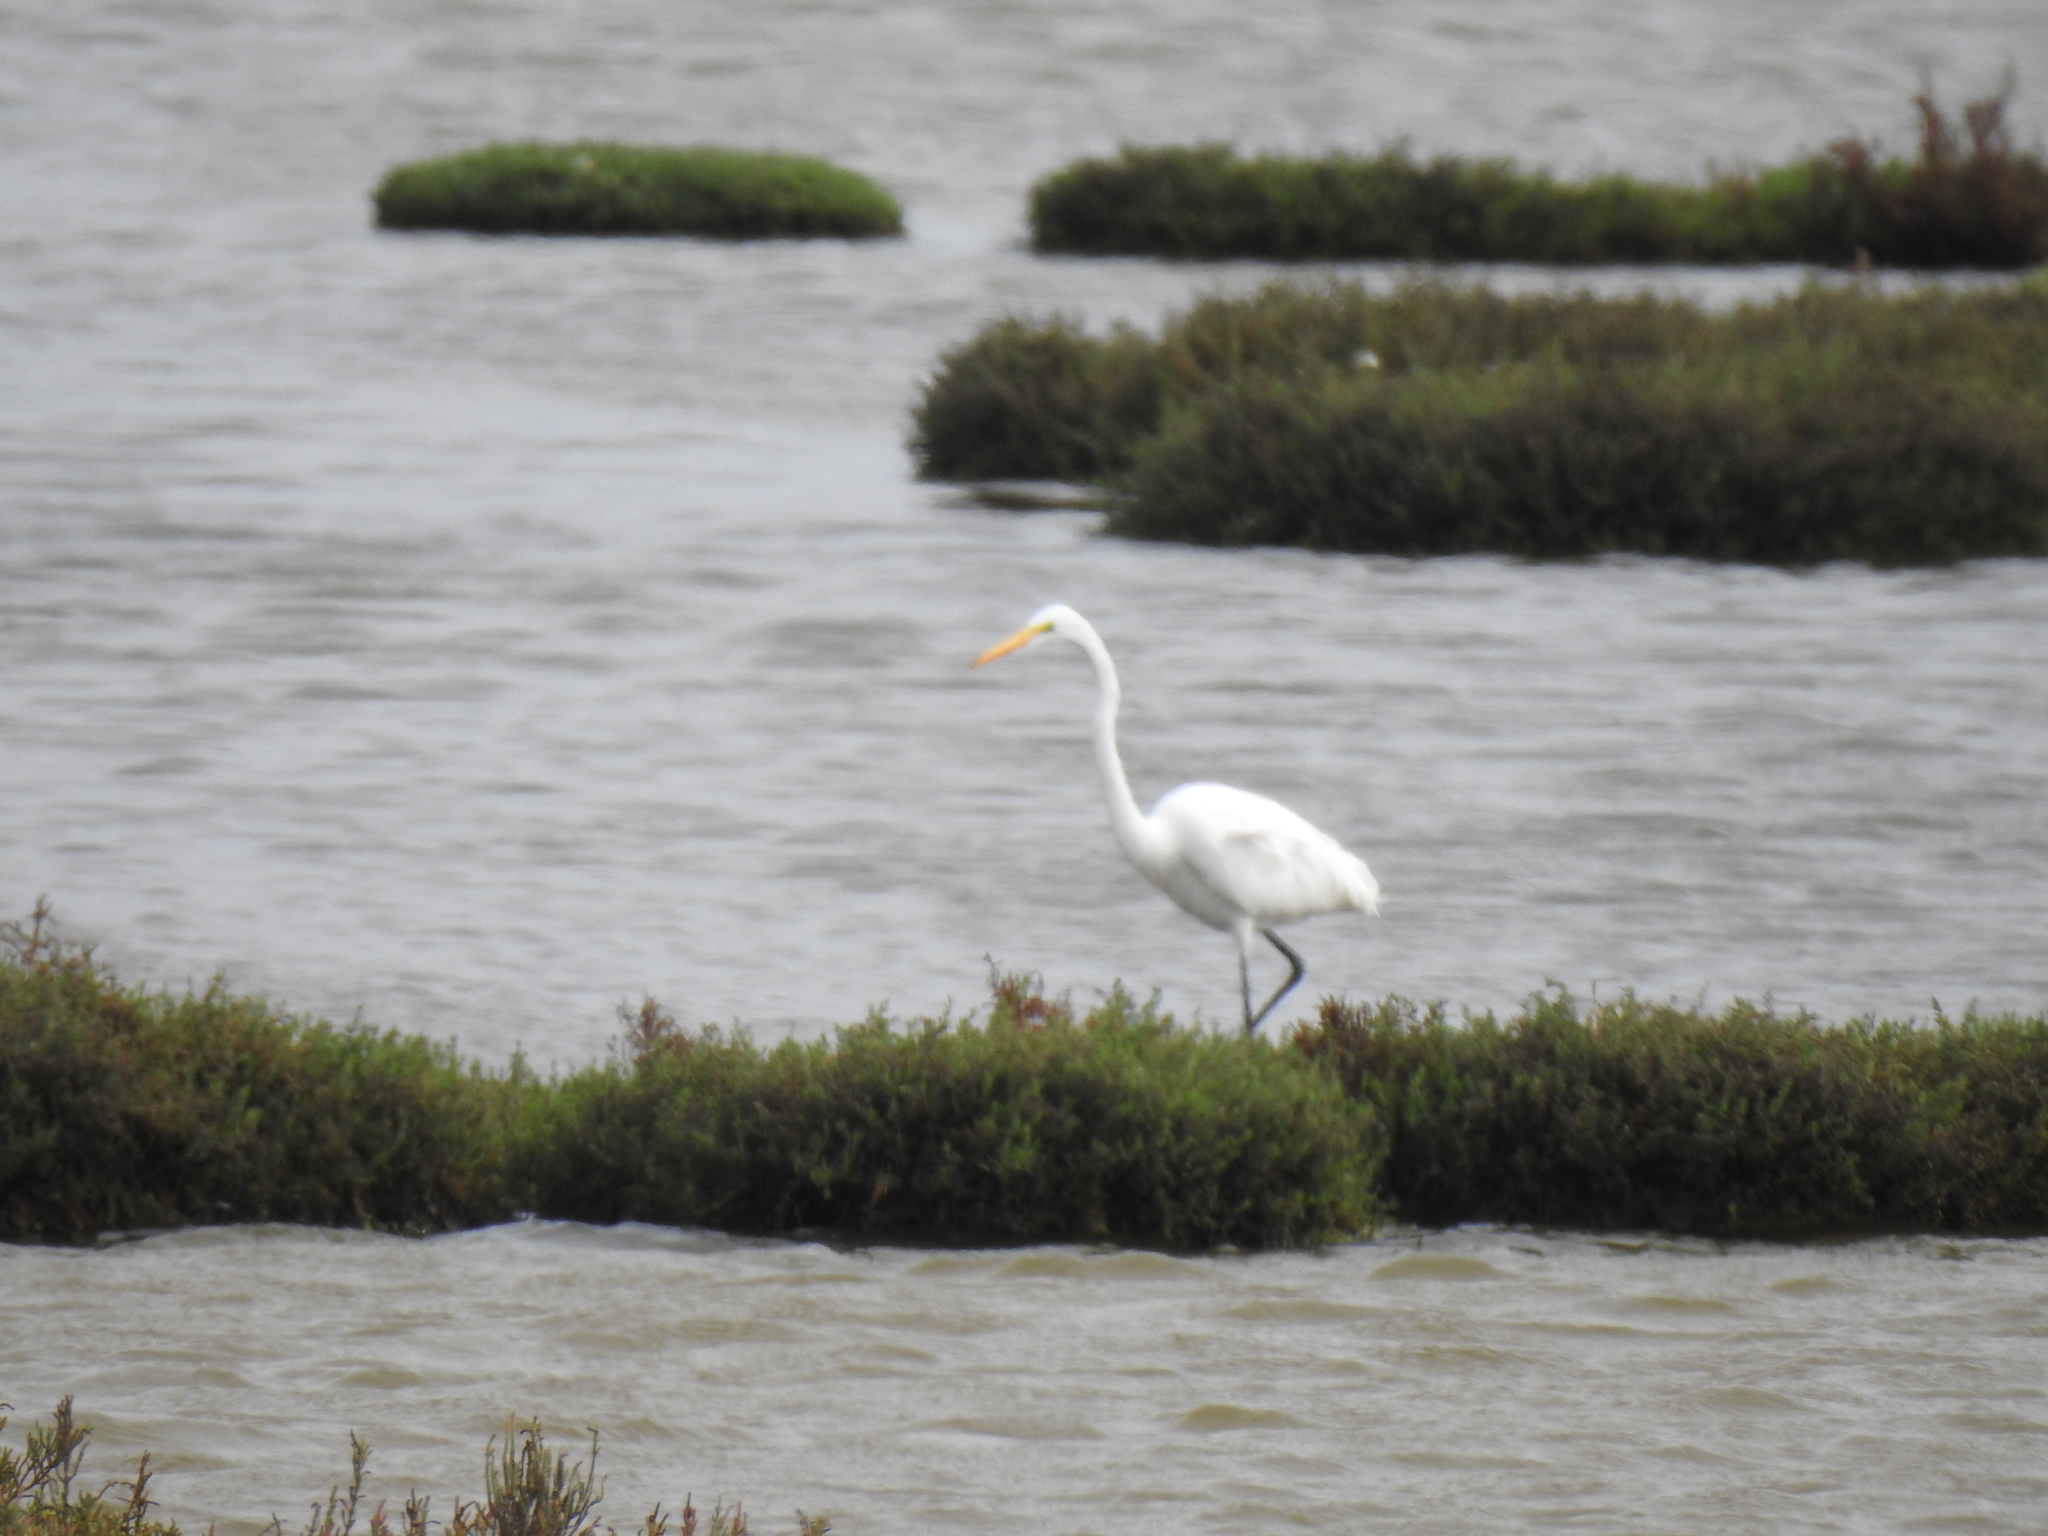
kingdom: Animalia
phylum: Chordata
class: Aves
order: Pelecaniformes
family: Ardeidae
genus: Ardea
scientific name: Ardea alba
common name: Great egret
